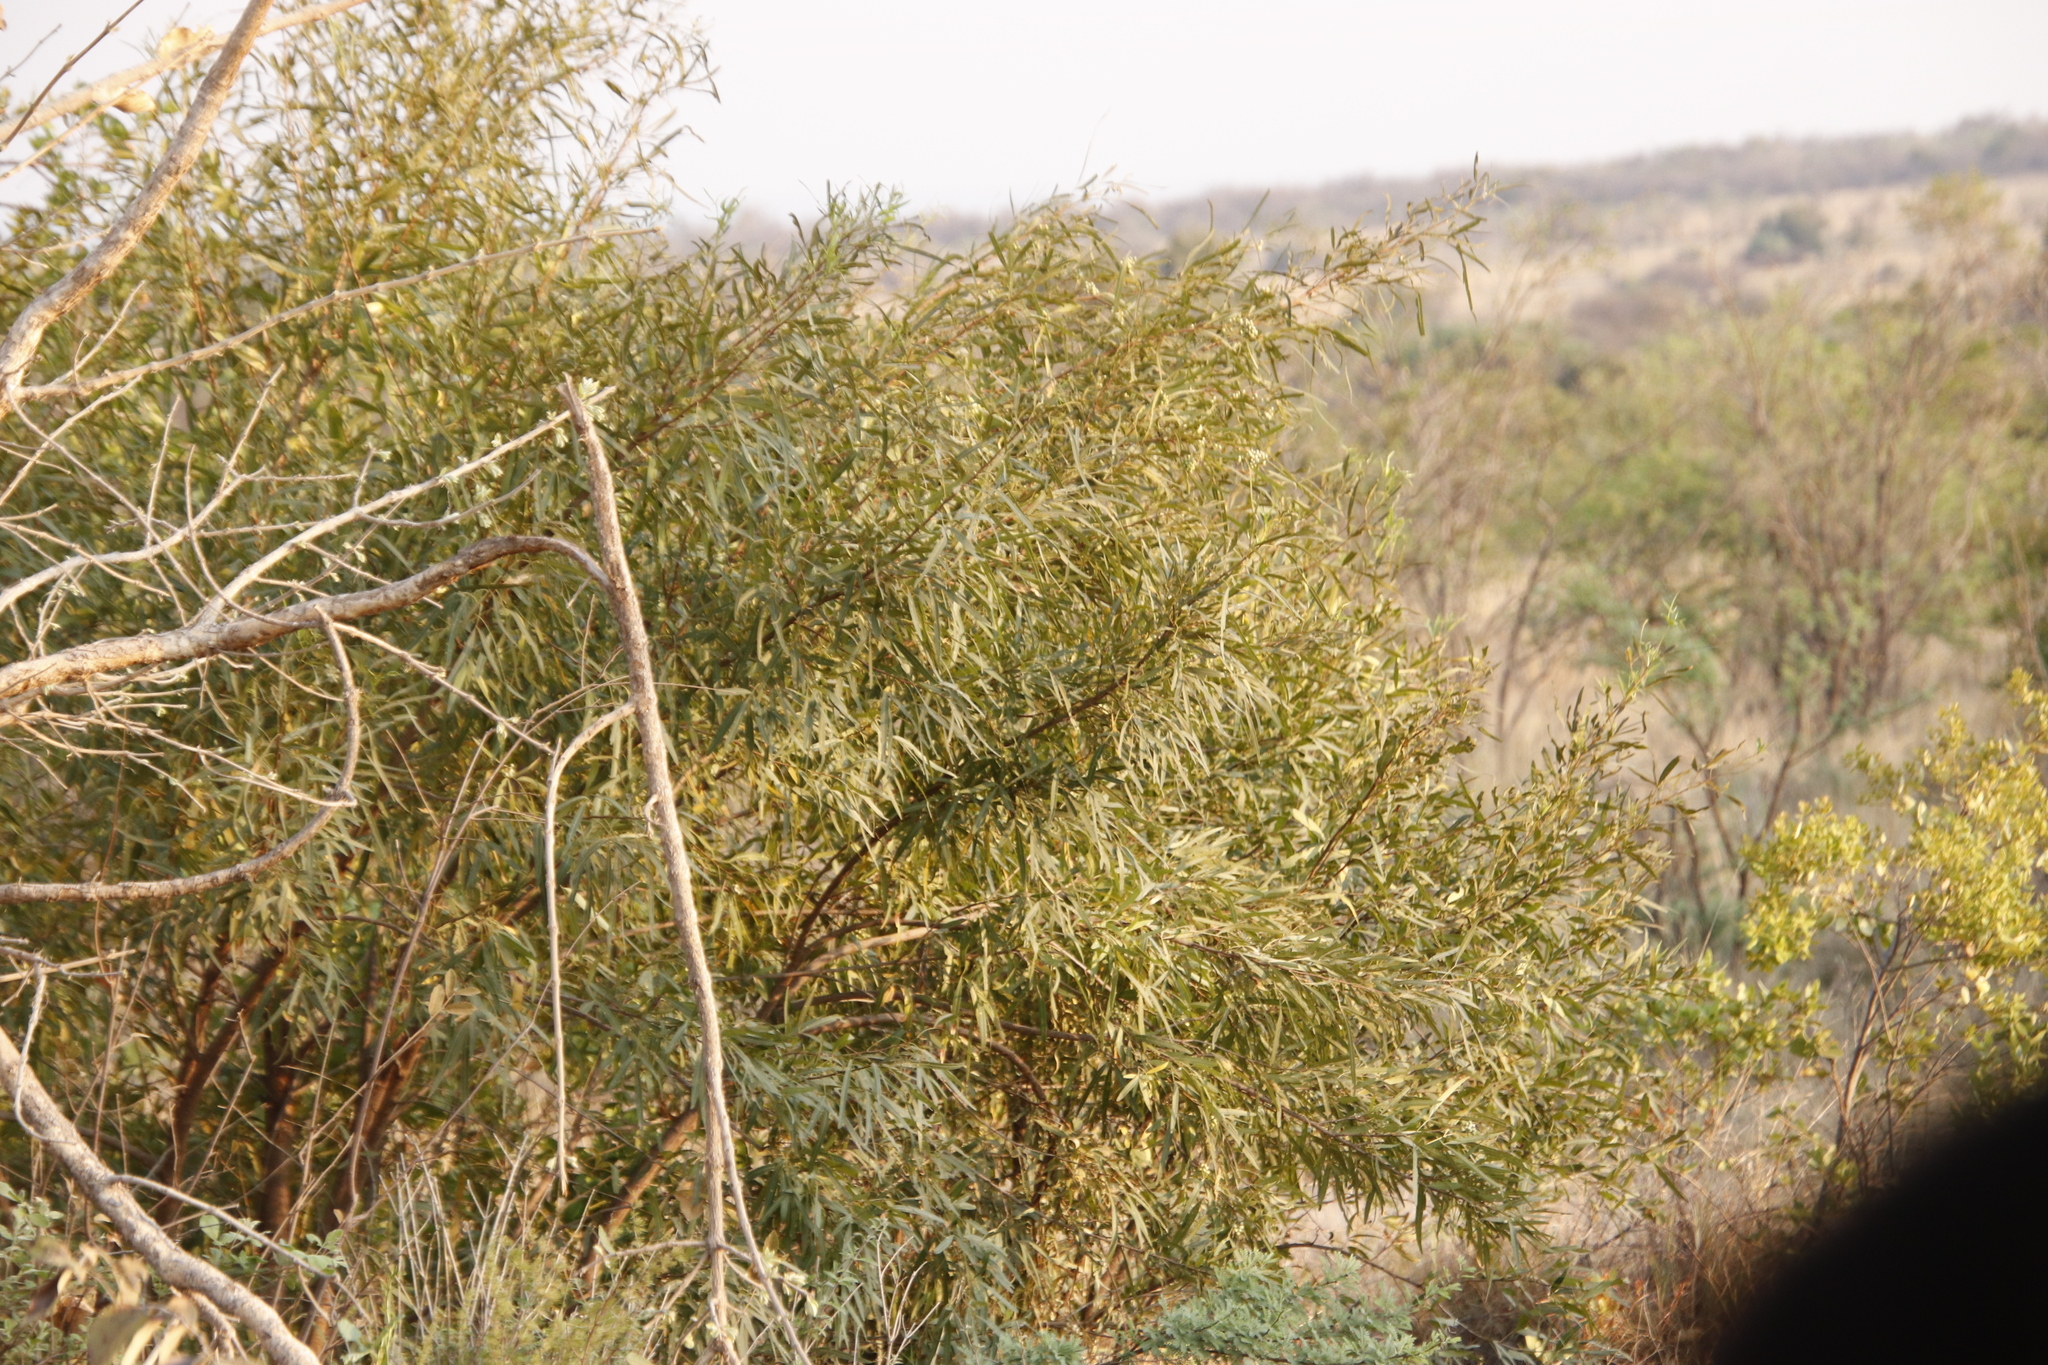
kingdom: Plantae
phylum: Tracheophyta
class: Magnoliopsida
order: Sapindales
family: Anacardiaceae
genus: Searsia
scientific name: Searsia lancea
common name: Cashew
